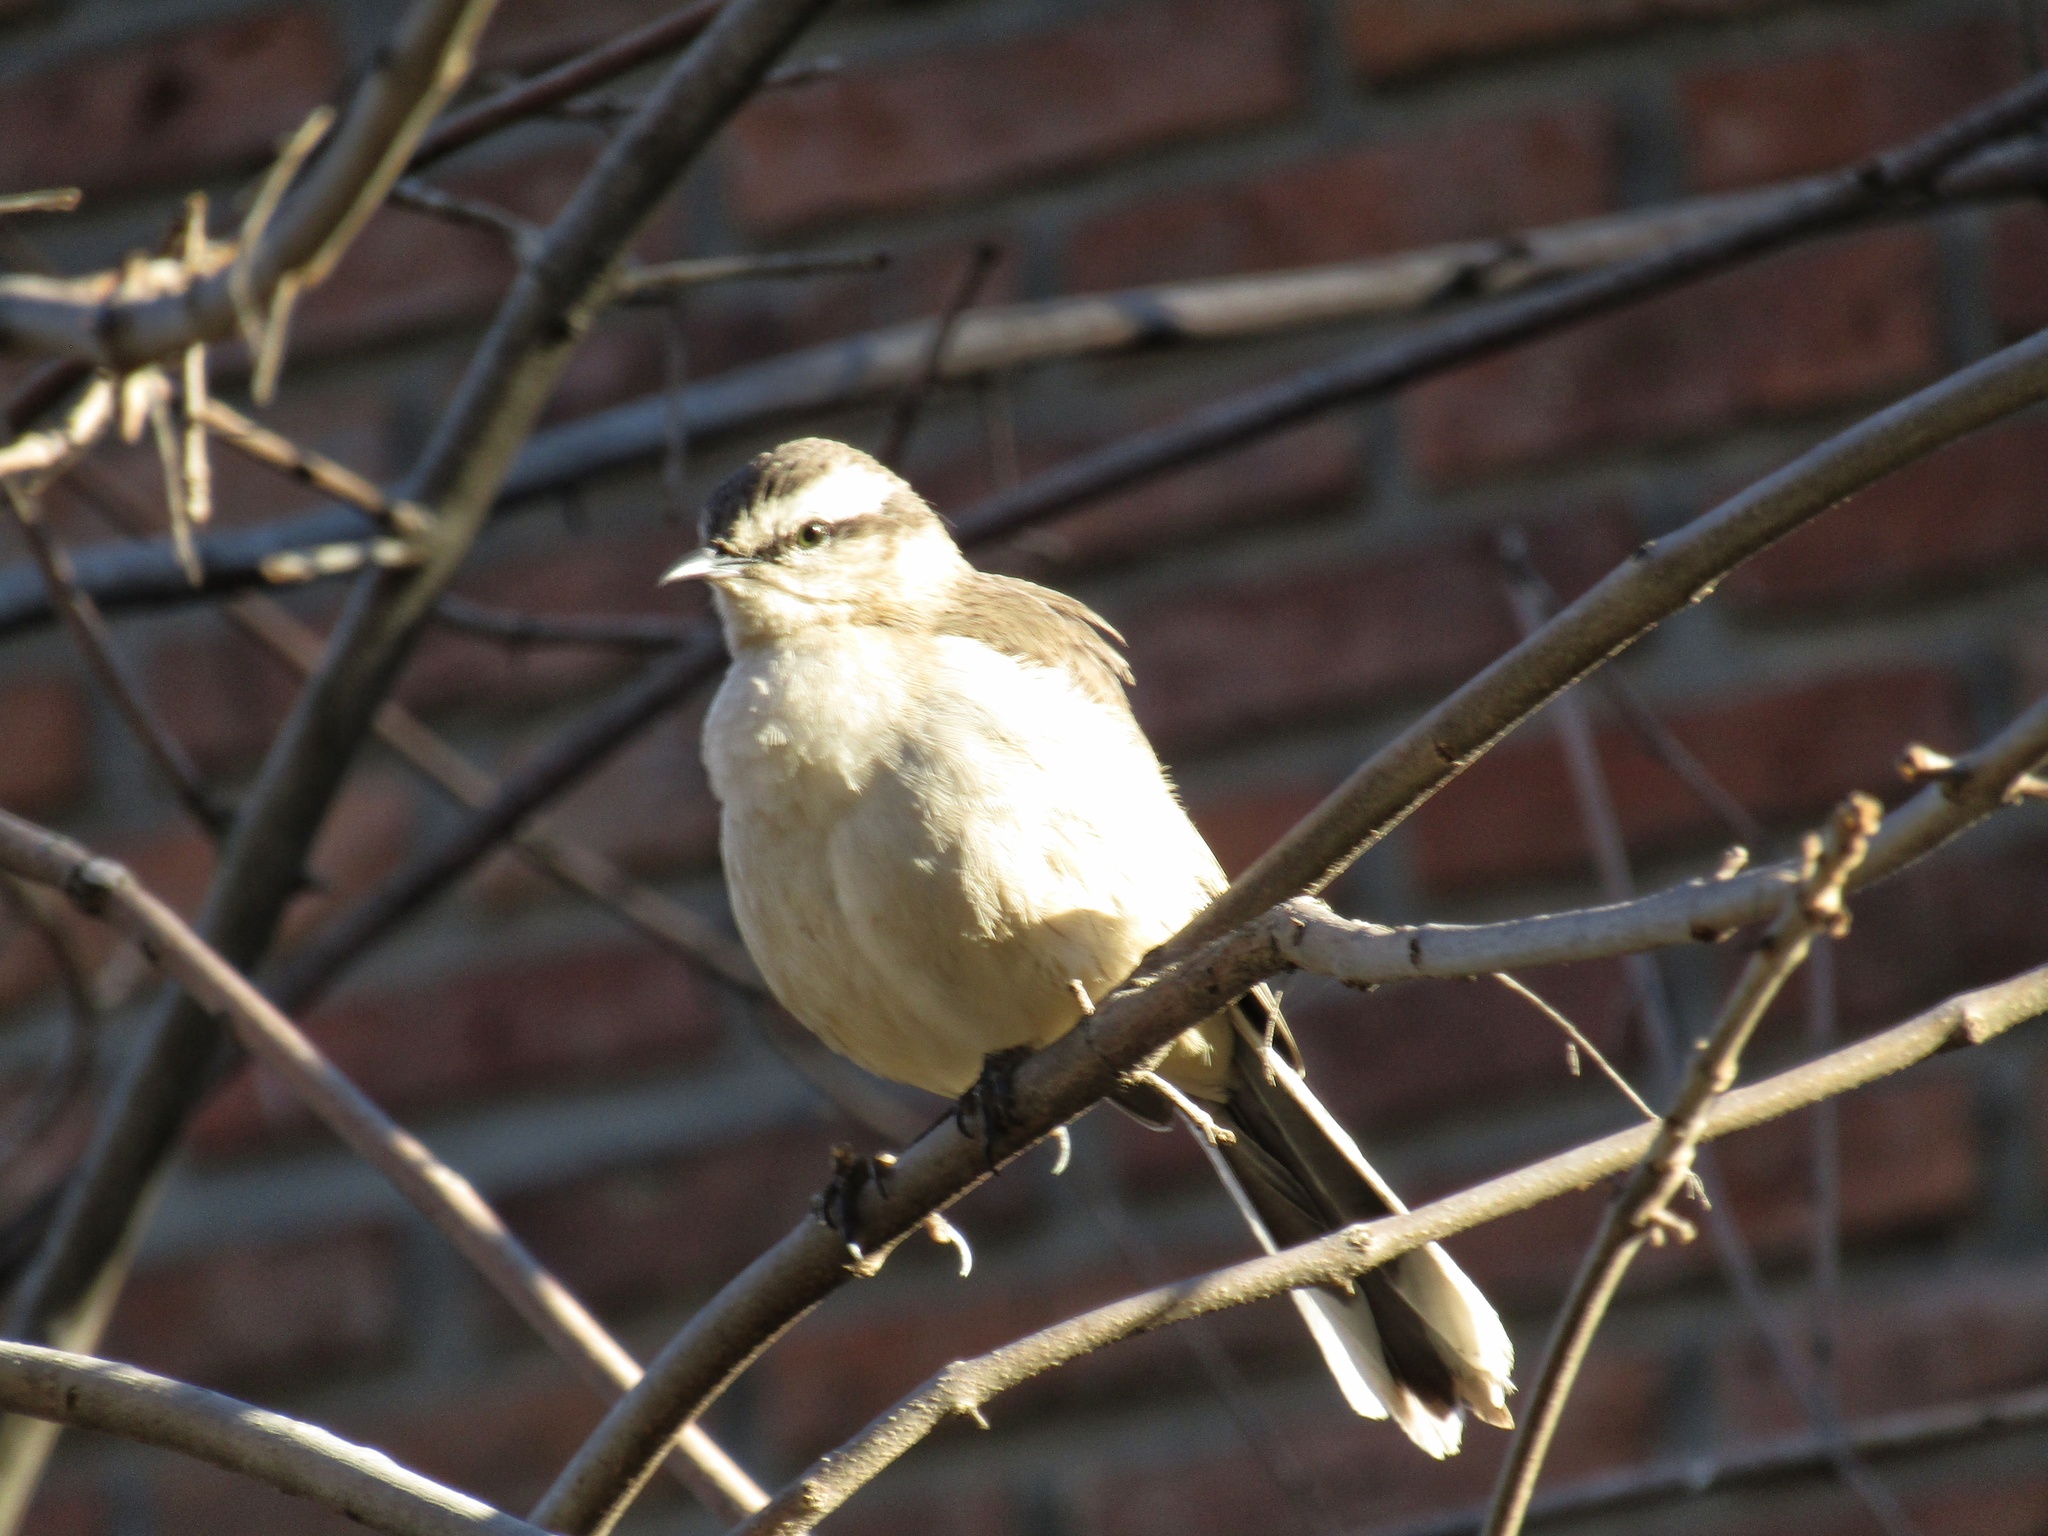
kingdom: Animalia
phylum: Chordata
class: Aves
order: Passeriformes
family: Mimidae
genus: Mimus
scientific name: Mimus saturninus
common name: Chalk-browed mockingbird
